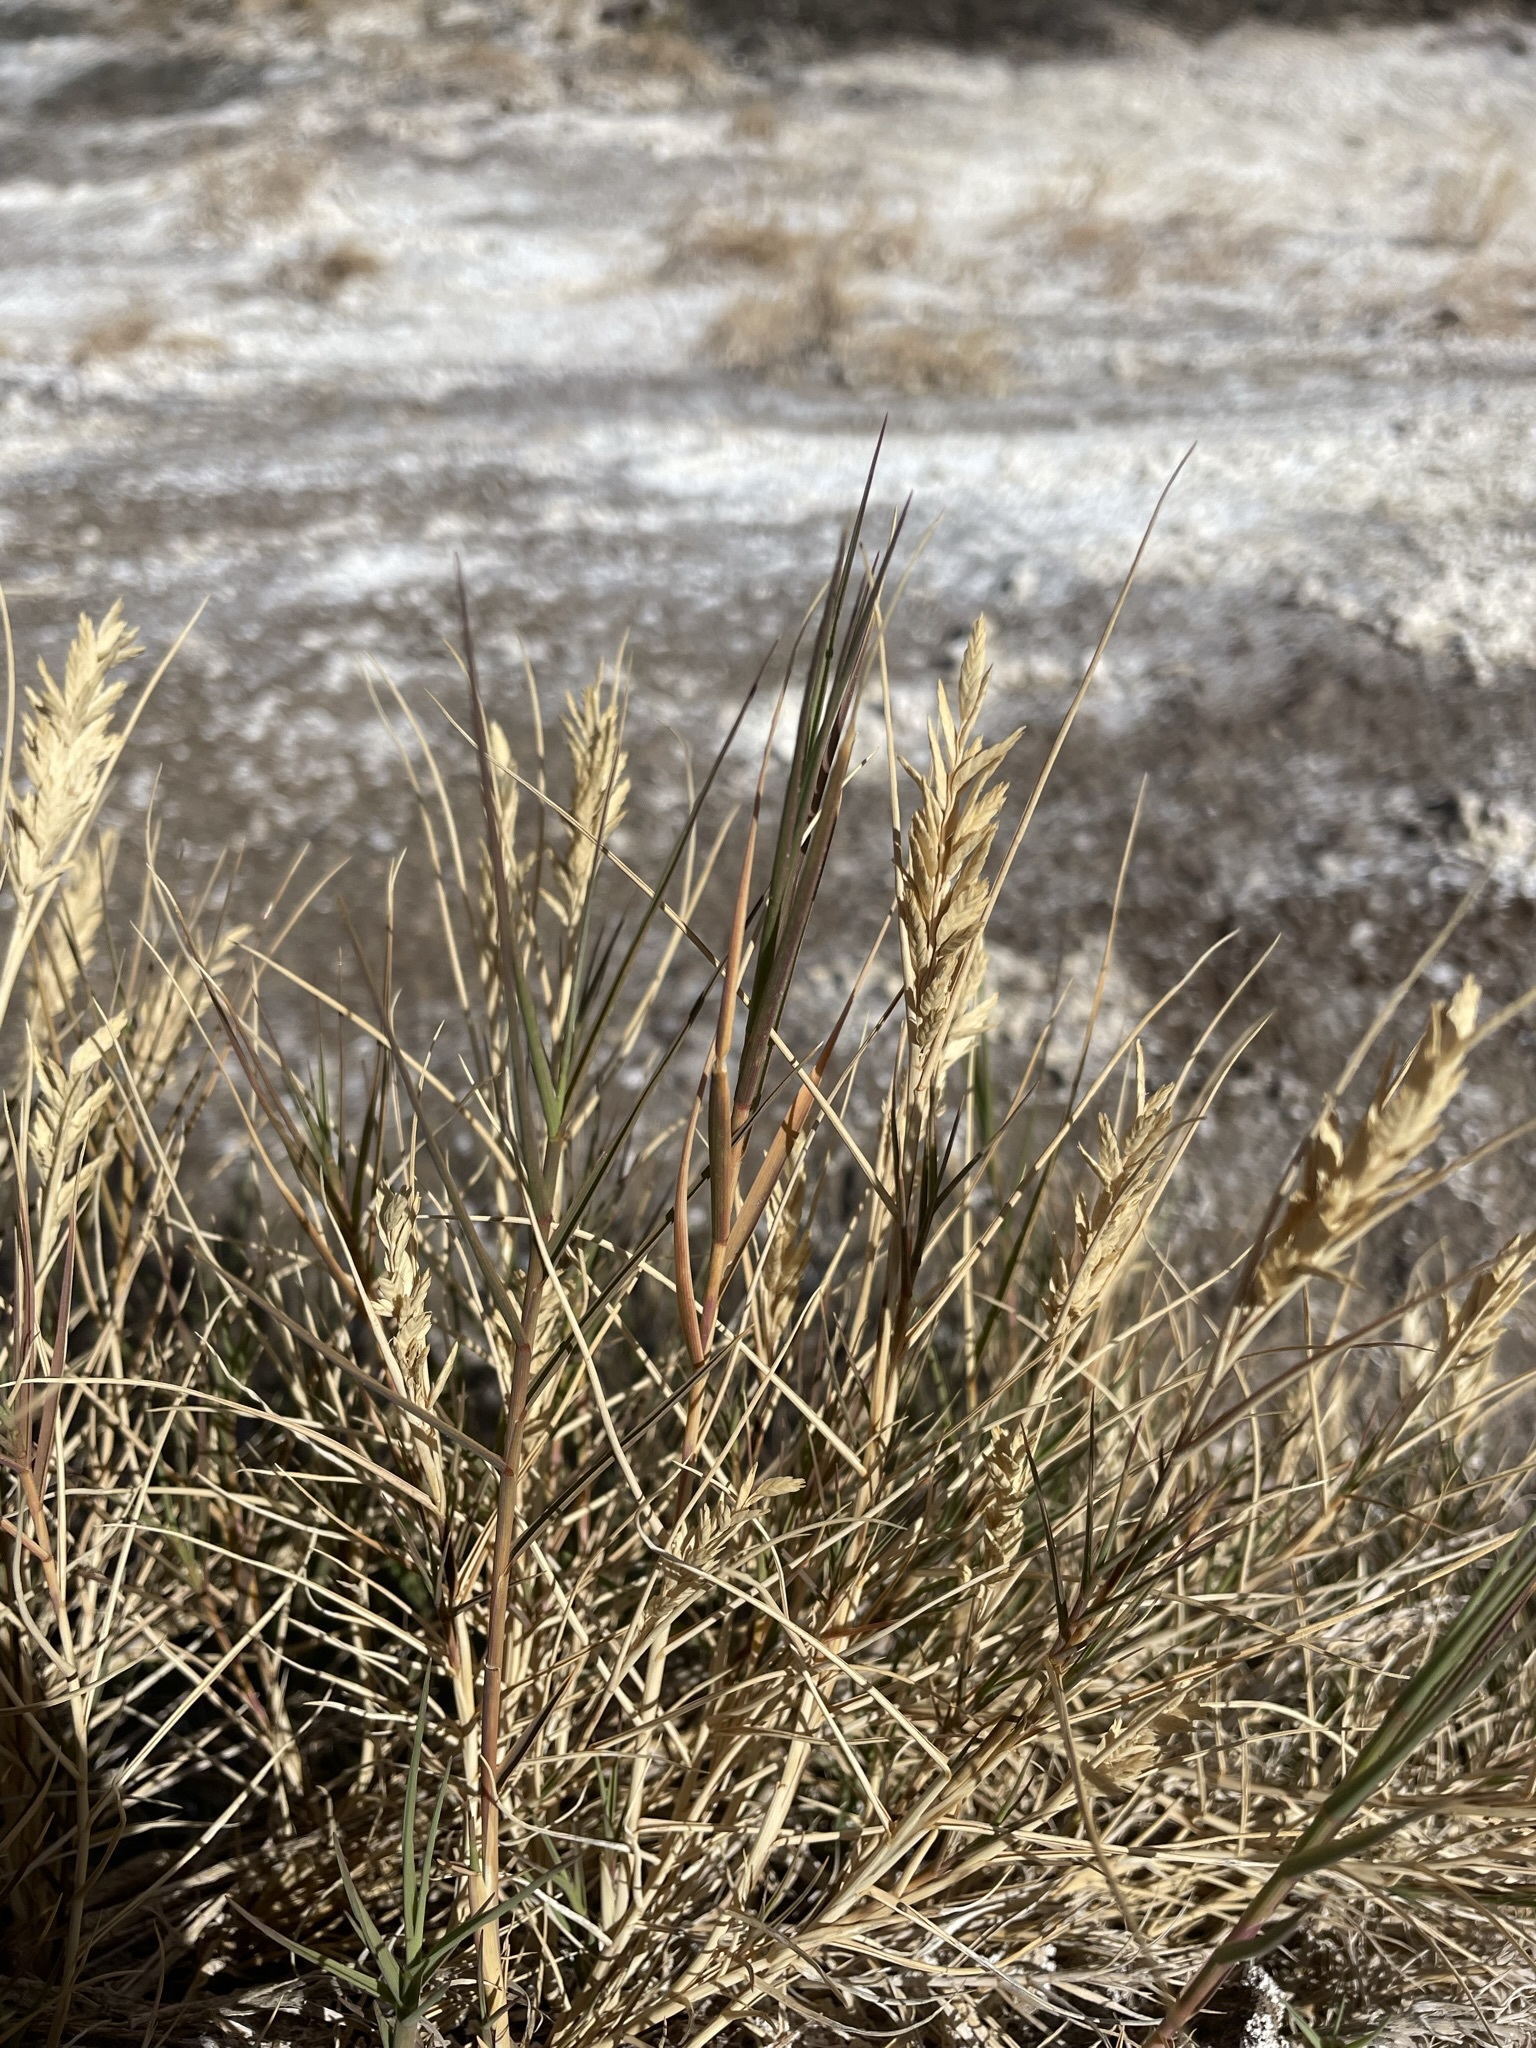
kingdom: Plantae
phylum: Tracheophyta
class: Liliopsida
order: Poales
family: Poaceae
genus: Distichlis
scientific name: Distichlis spicata
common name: Saltgrass
